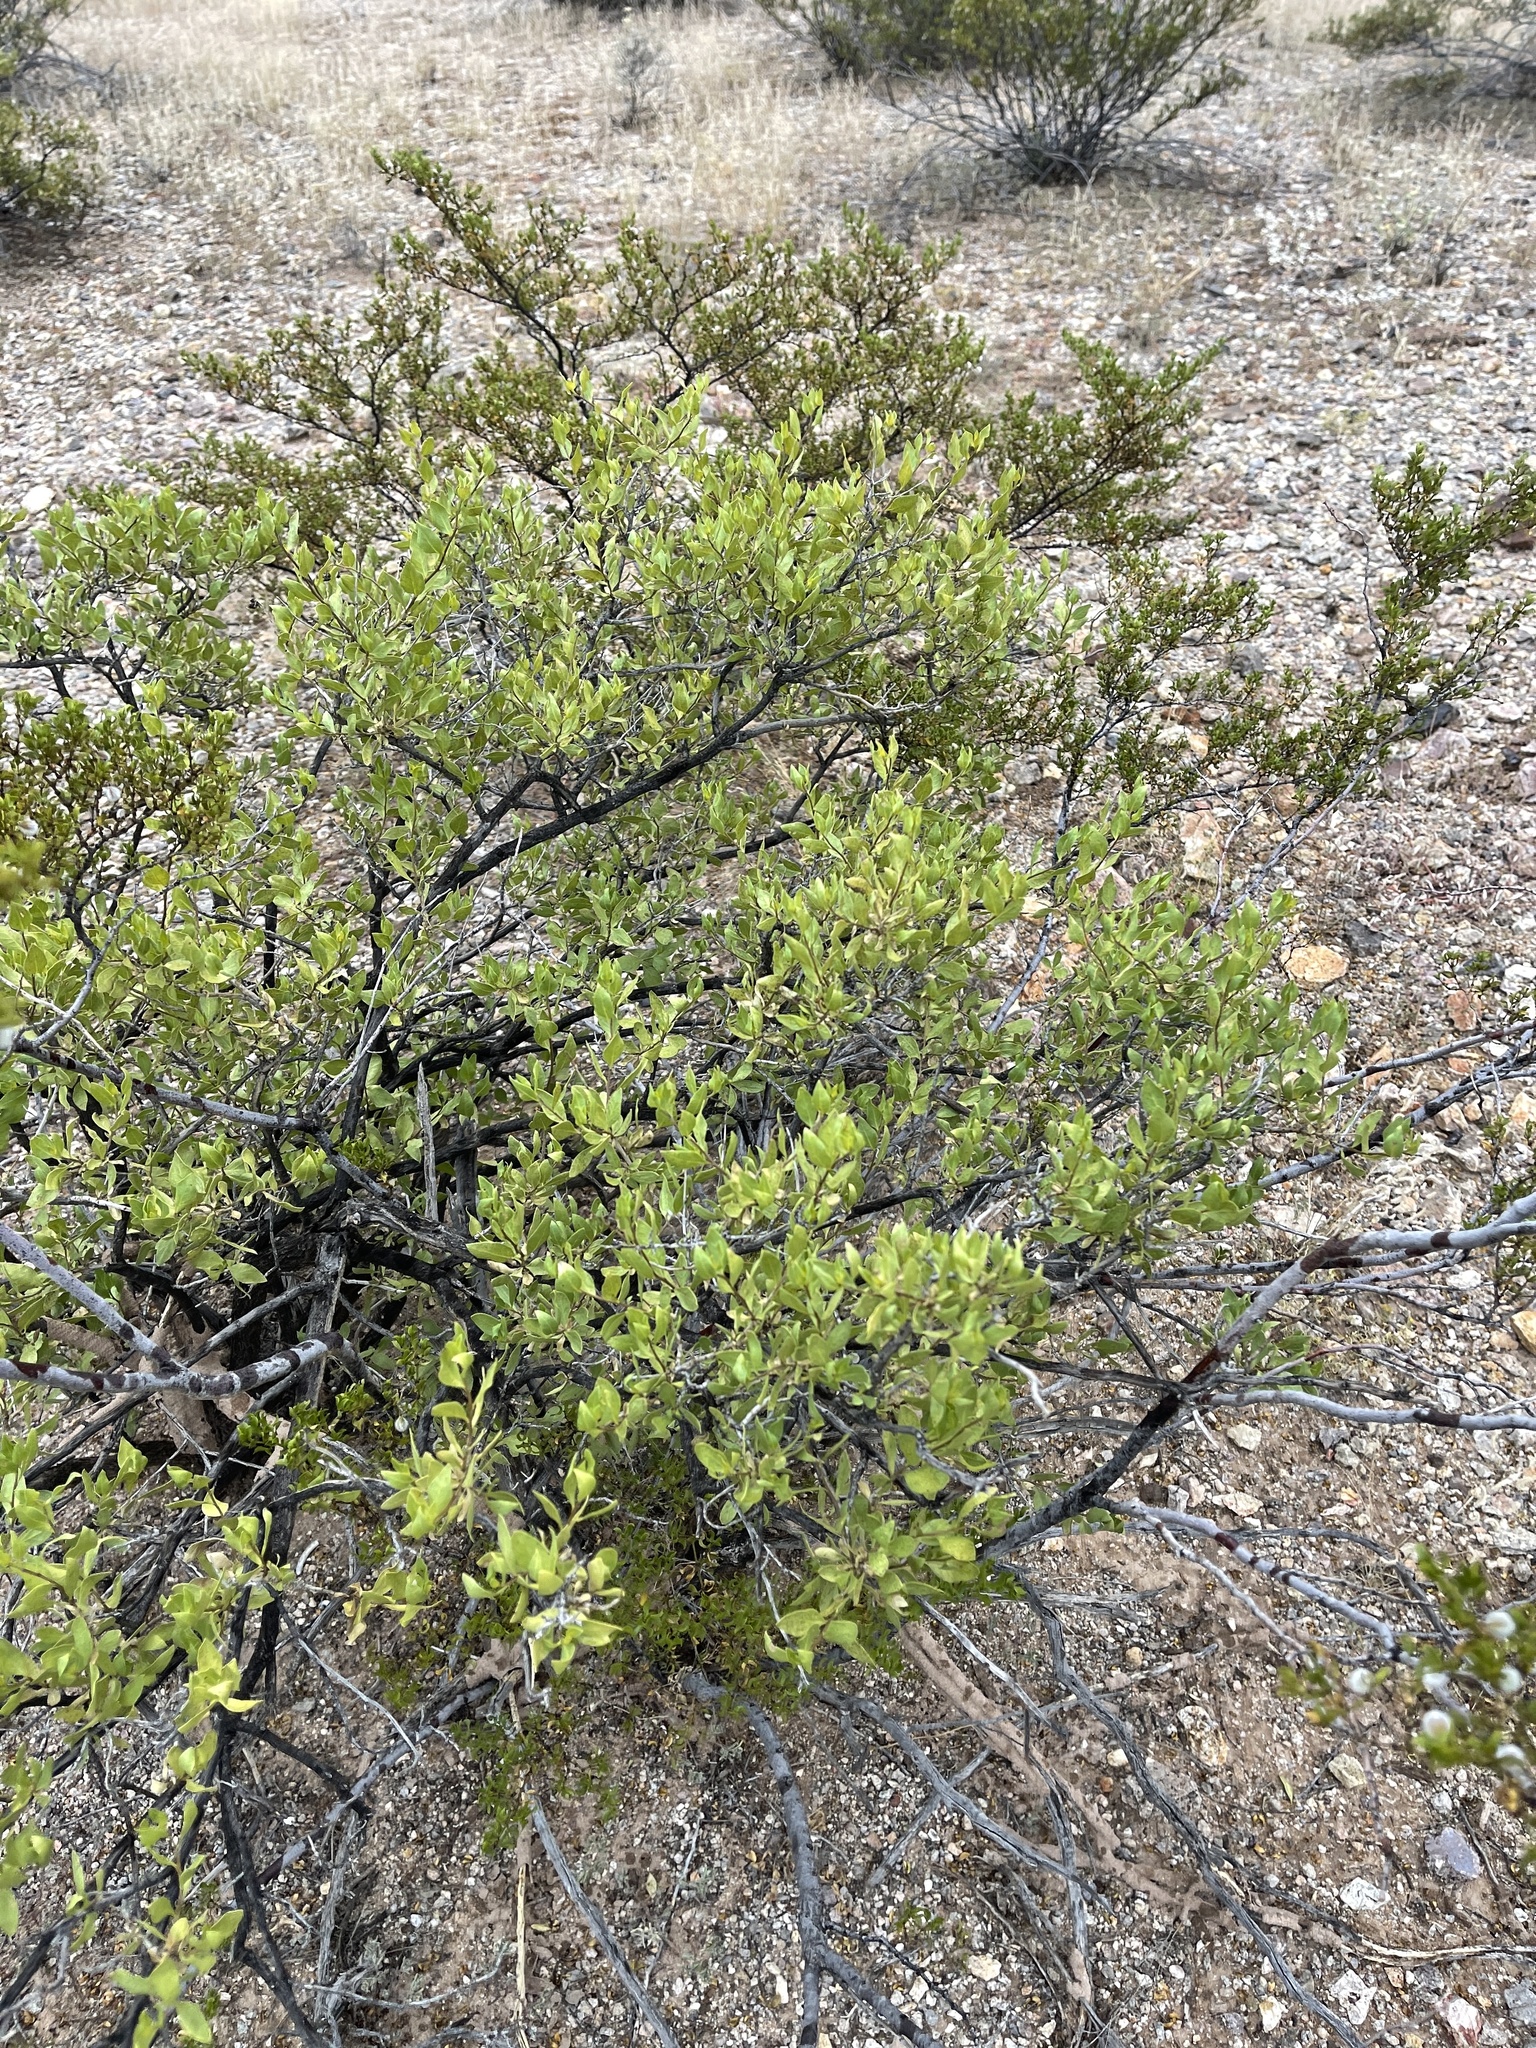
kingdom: Plantae
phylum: Tracheophyta
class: Magnoliopsida
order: Asterales
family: Asteraceae
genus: Flourensia
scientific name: Flourensia cernua
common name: Varnishbush
